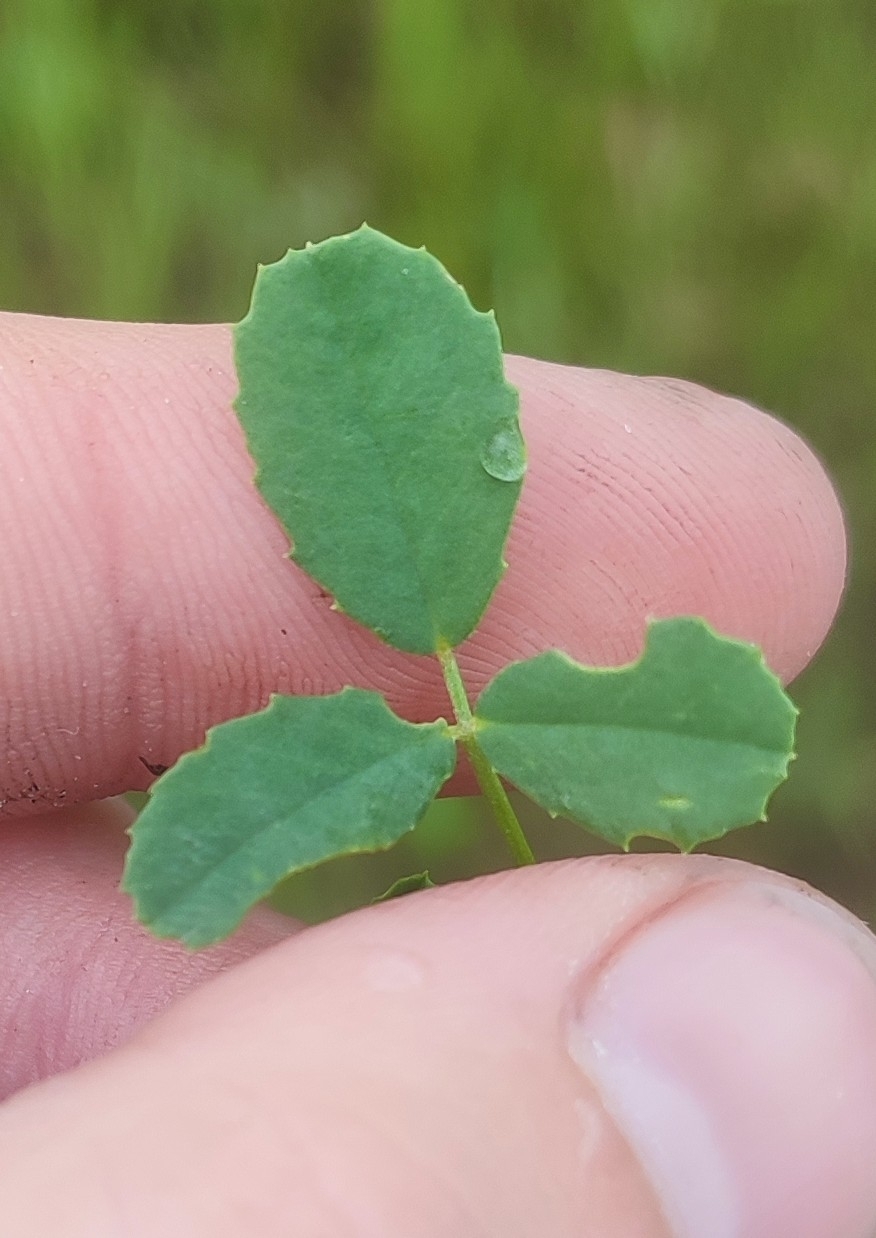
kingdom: Plantae
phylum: Tracheophyta
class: Magnoliopsida
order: Fabales
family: Fabaceae
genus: Melilotus
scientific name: Melilotus officinalis
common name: Sweetclover
